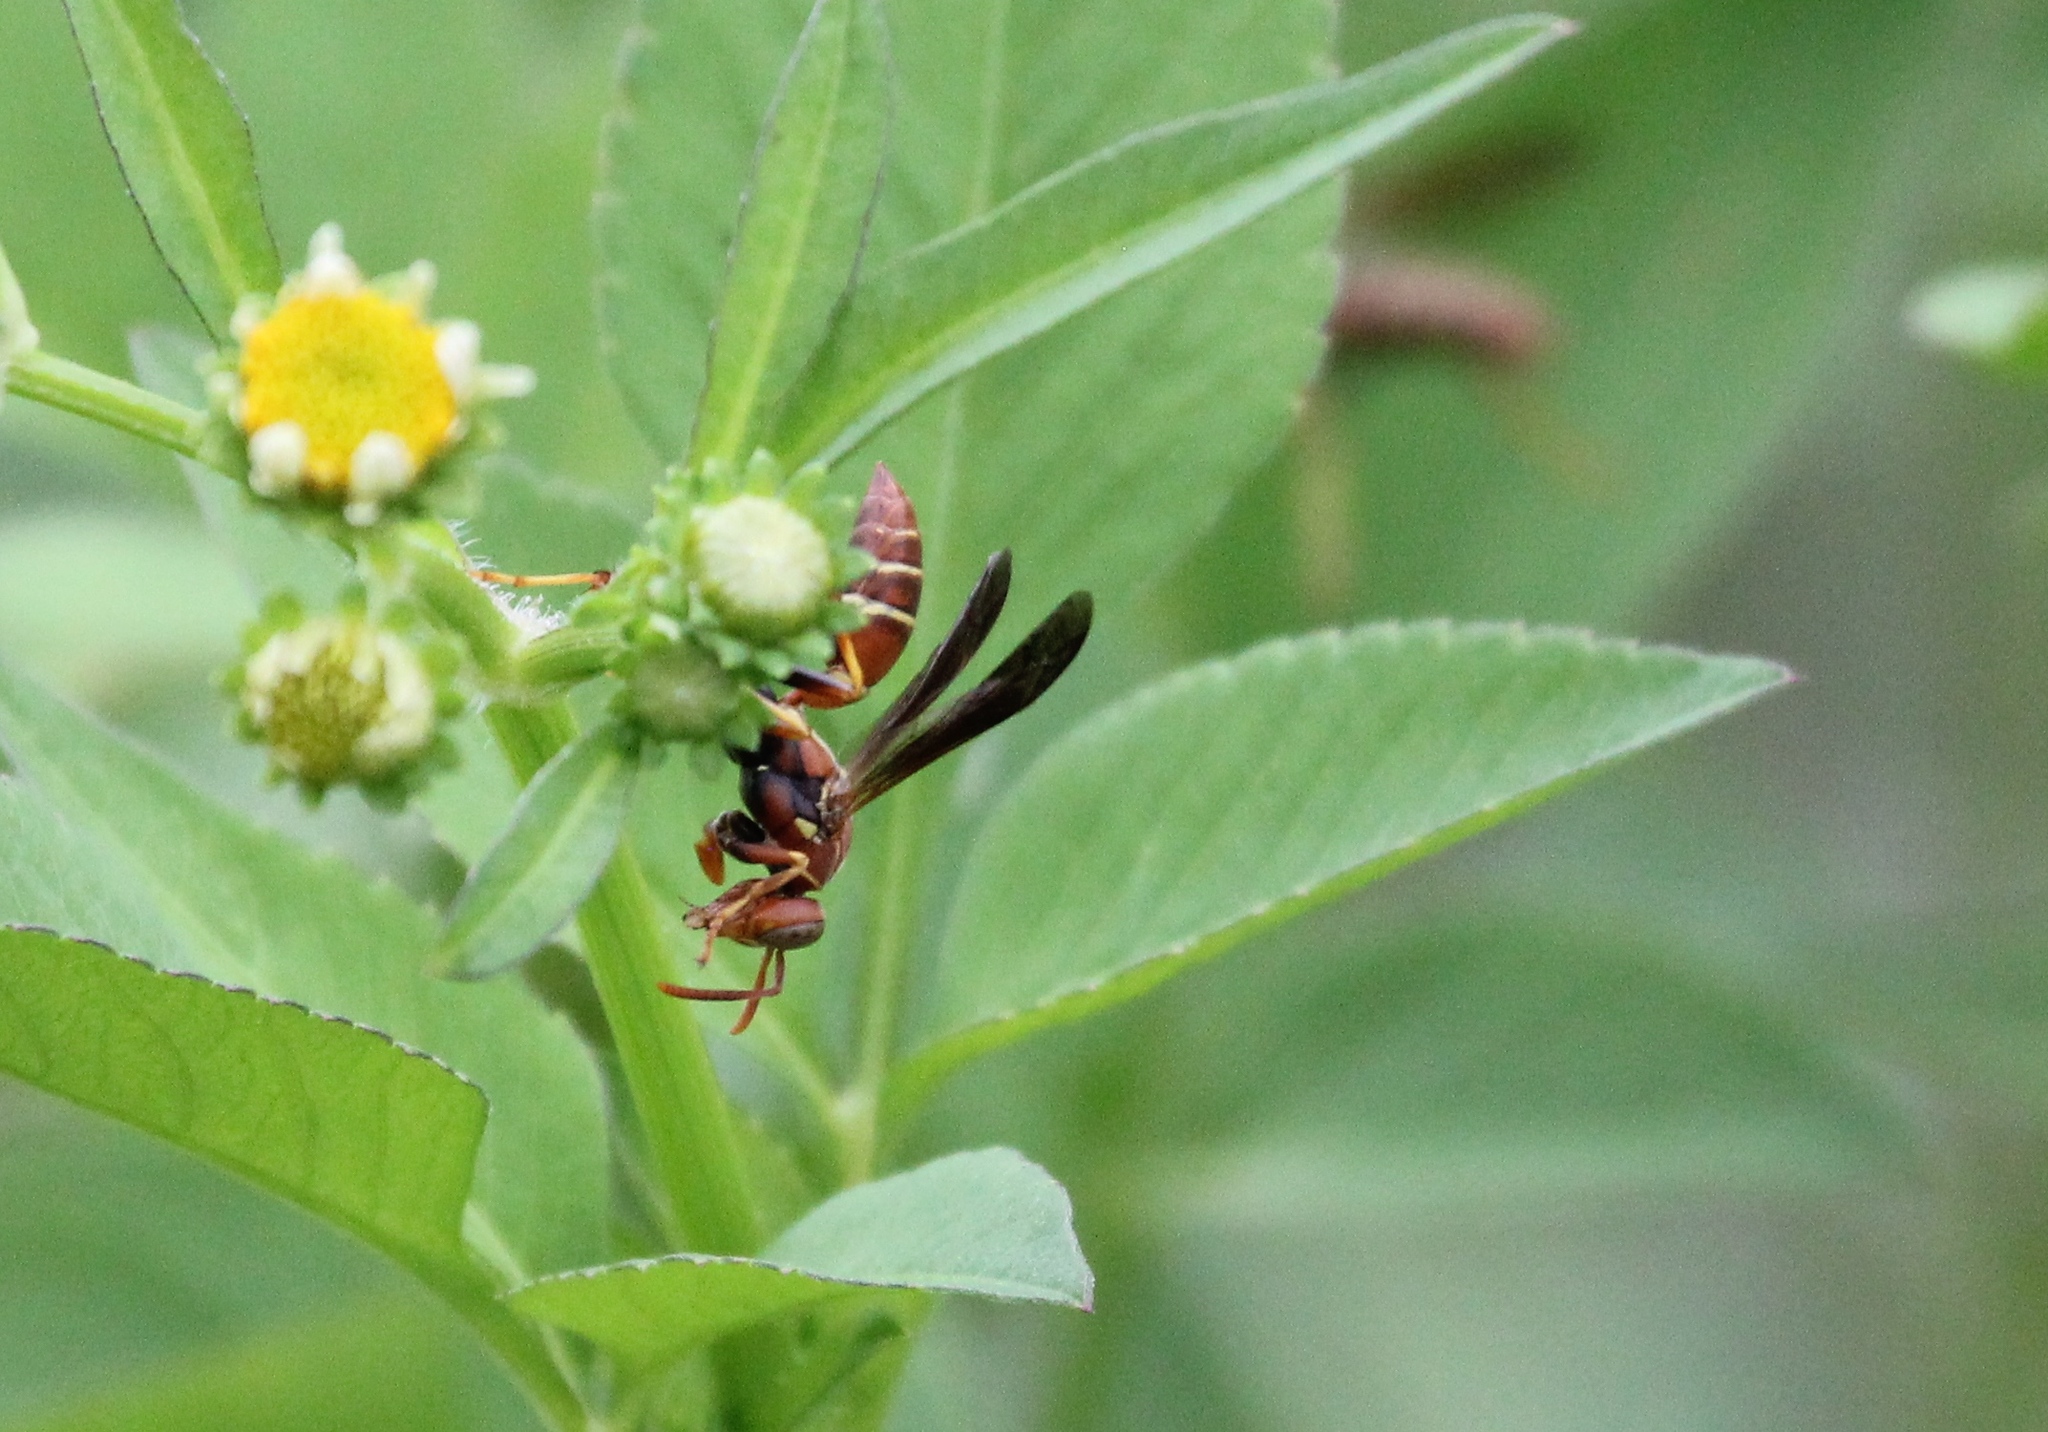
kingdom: Animalia
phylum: Arthropoda
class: Insecta
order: Hymenoptera
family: Eumenidae
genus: Polistes
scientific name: Polistes dorsalis
